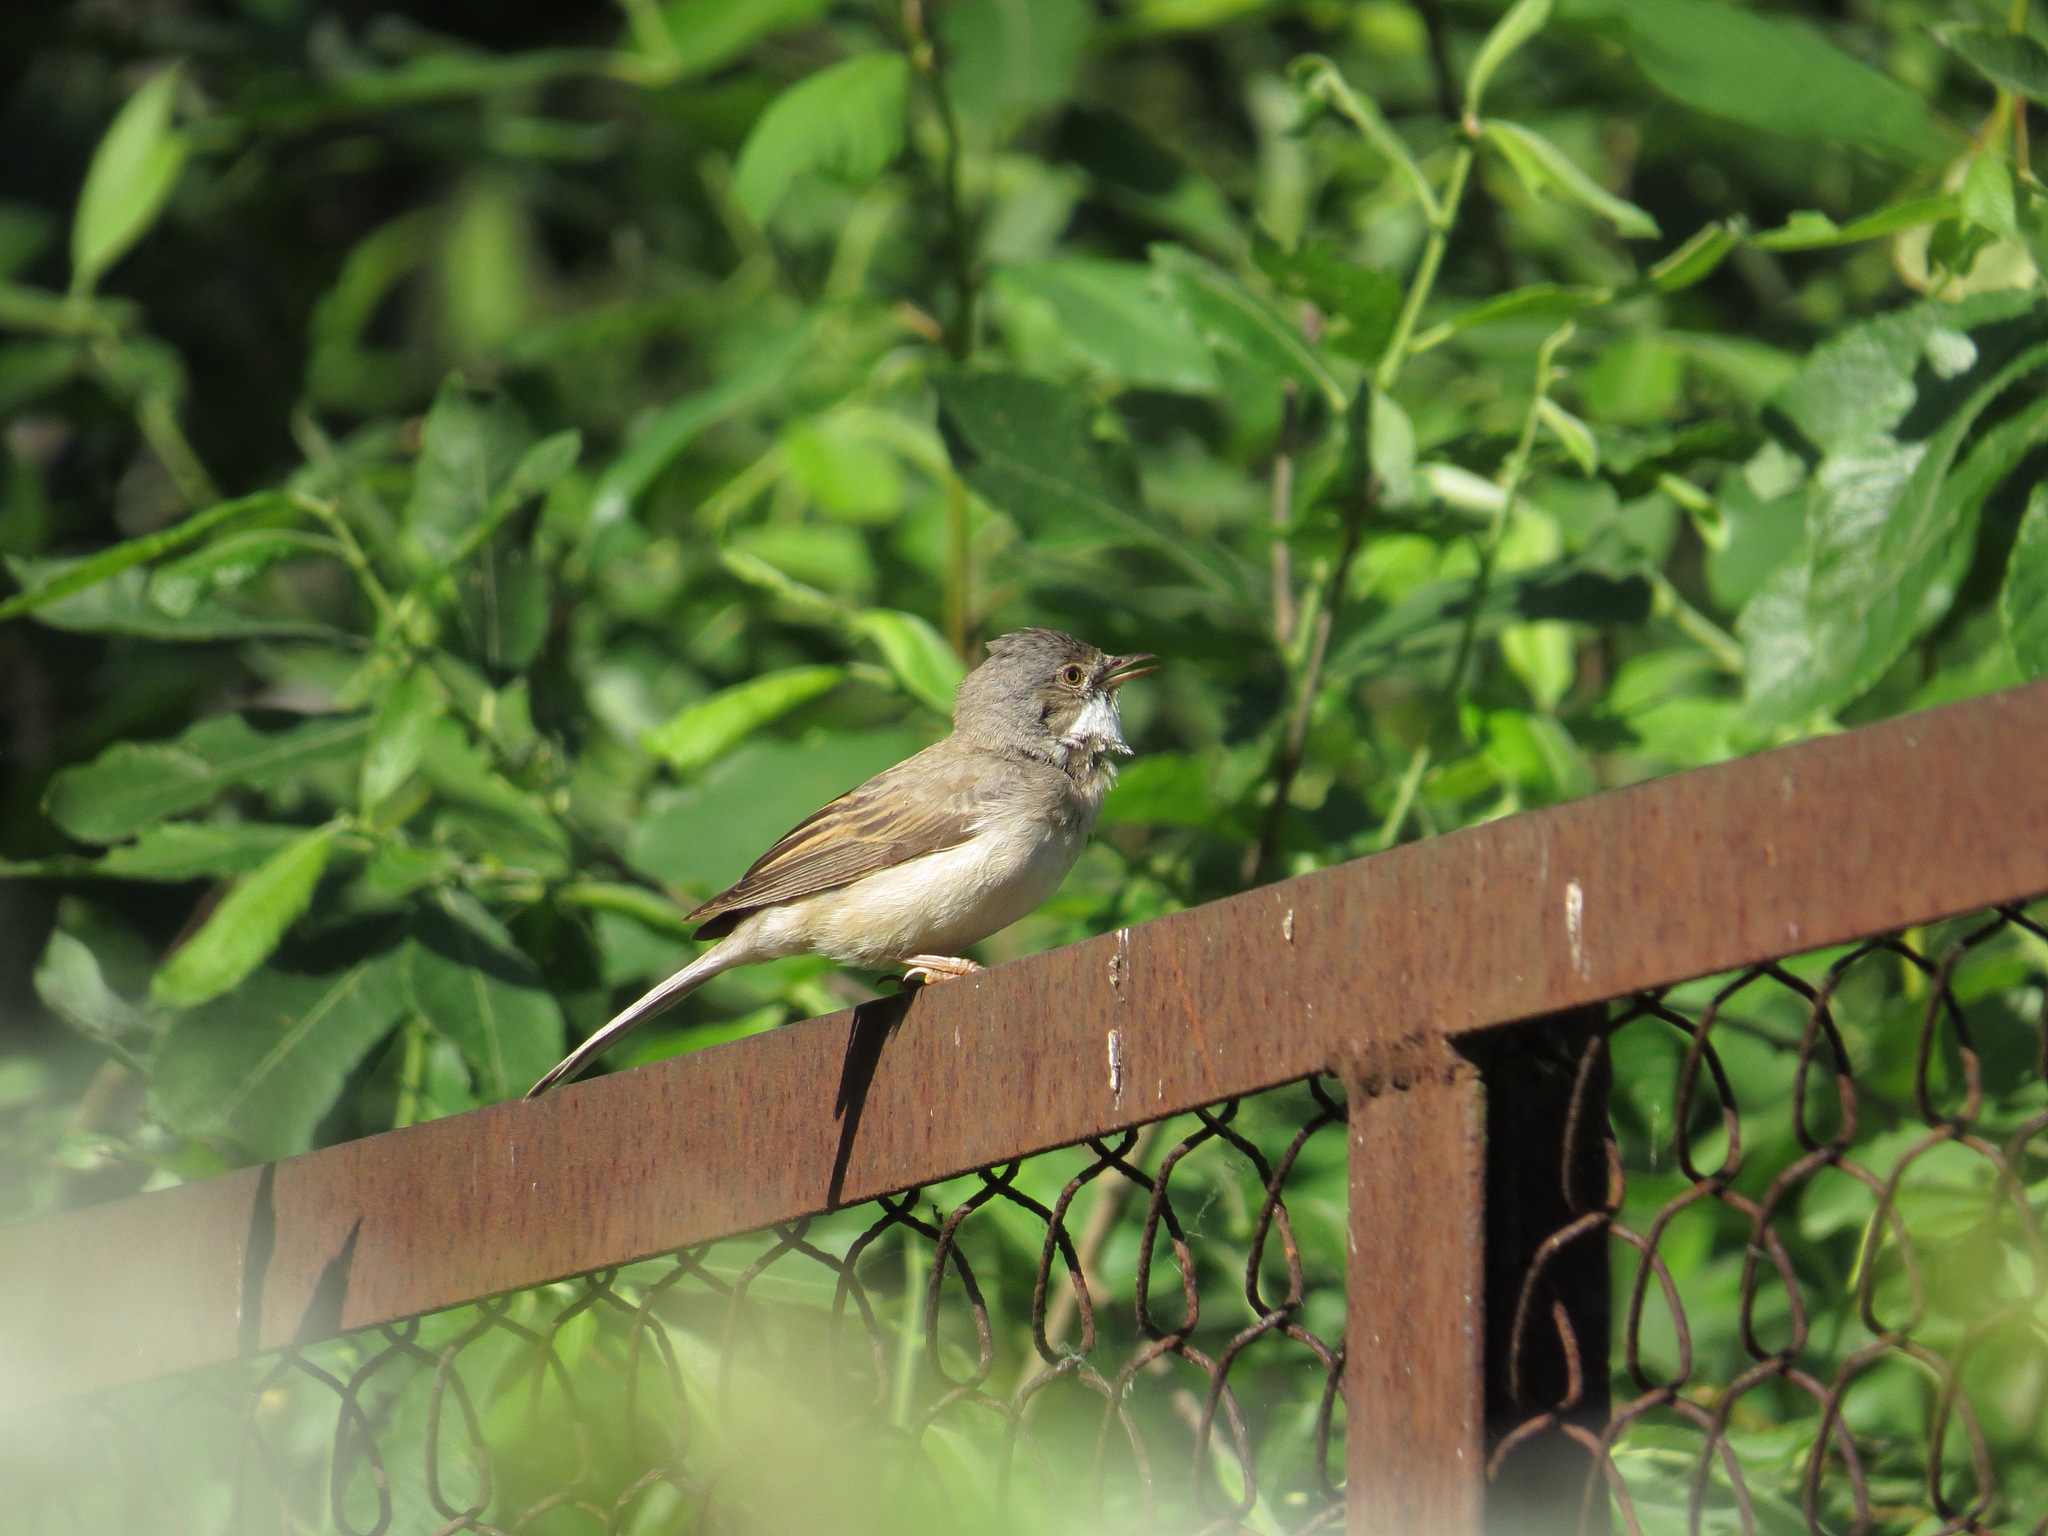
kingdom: Animalia
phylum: Chordata
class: Aves
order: Passeriformes
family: Sylviidae
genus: Sylvia
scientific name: Sylvia communis
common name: Common whitethroat
